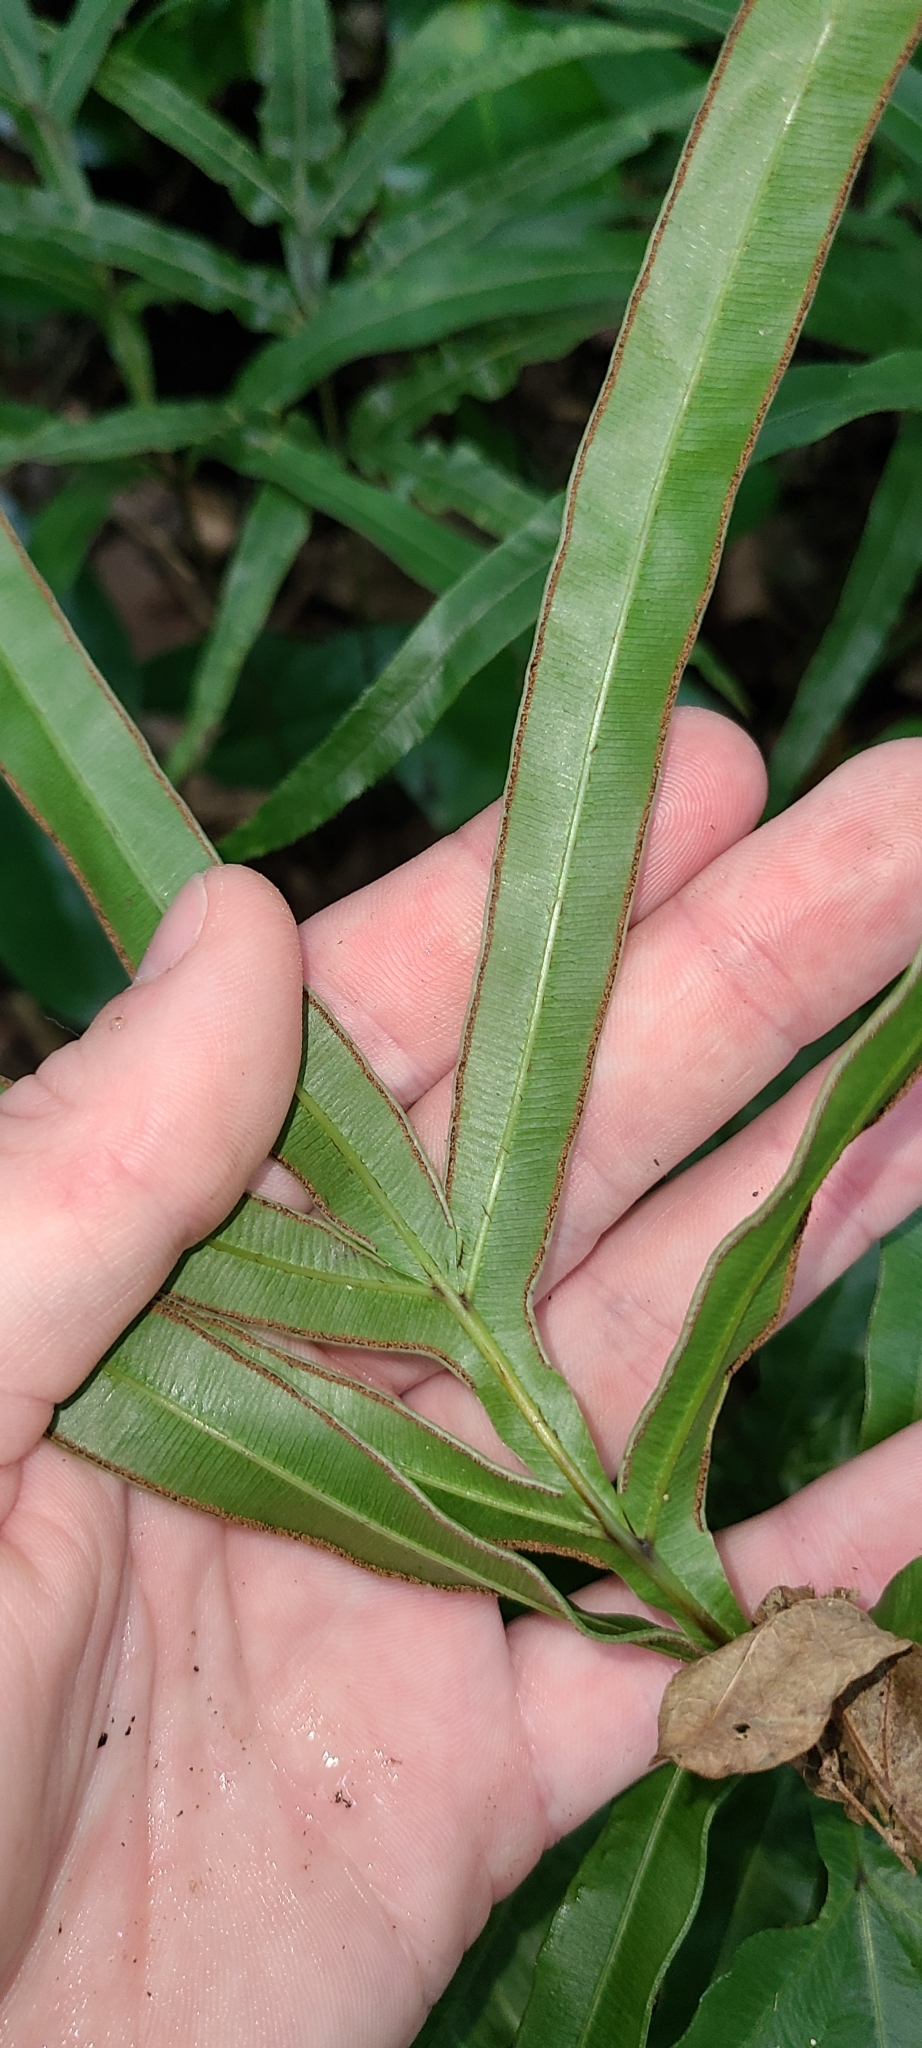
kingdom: Plantae
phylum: Tracheophyta
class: Polypodiopsida
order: Polypodiales
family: Pteridaceae
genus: Pteris
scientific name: Pteris cretica
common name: Ribbon fern
